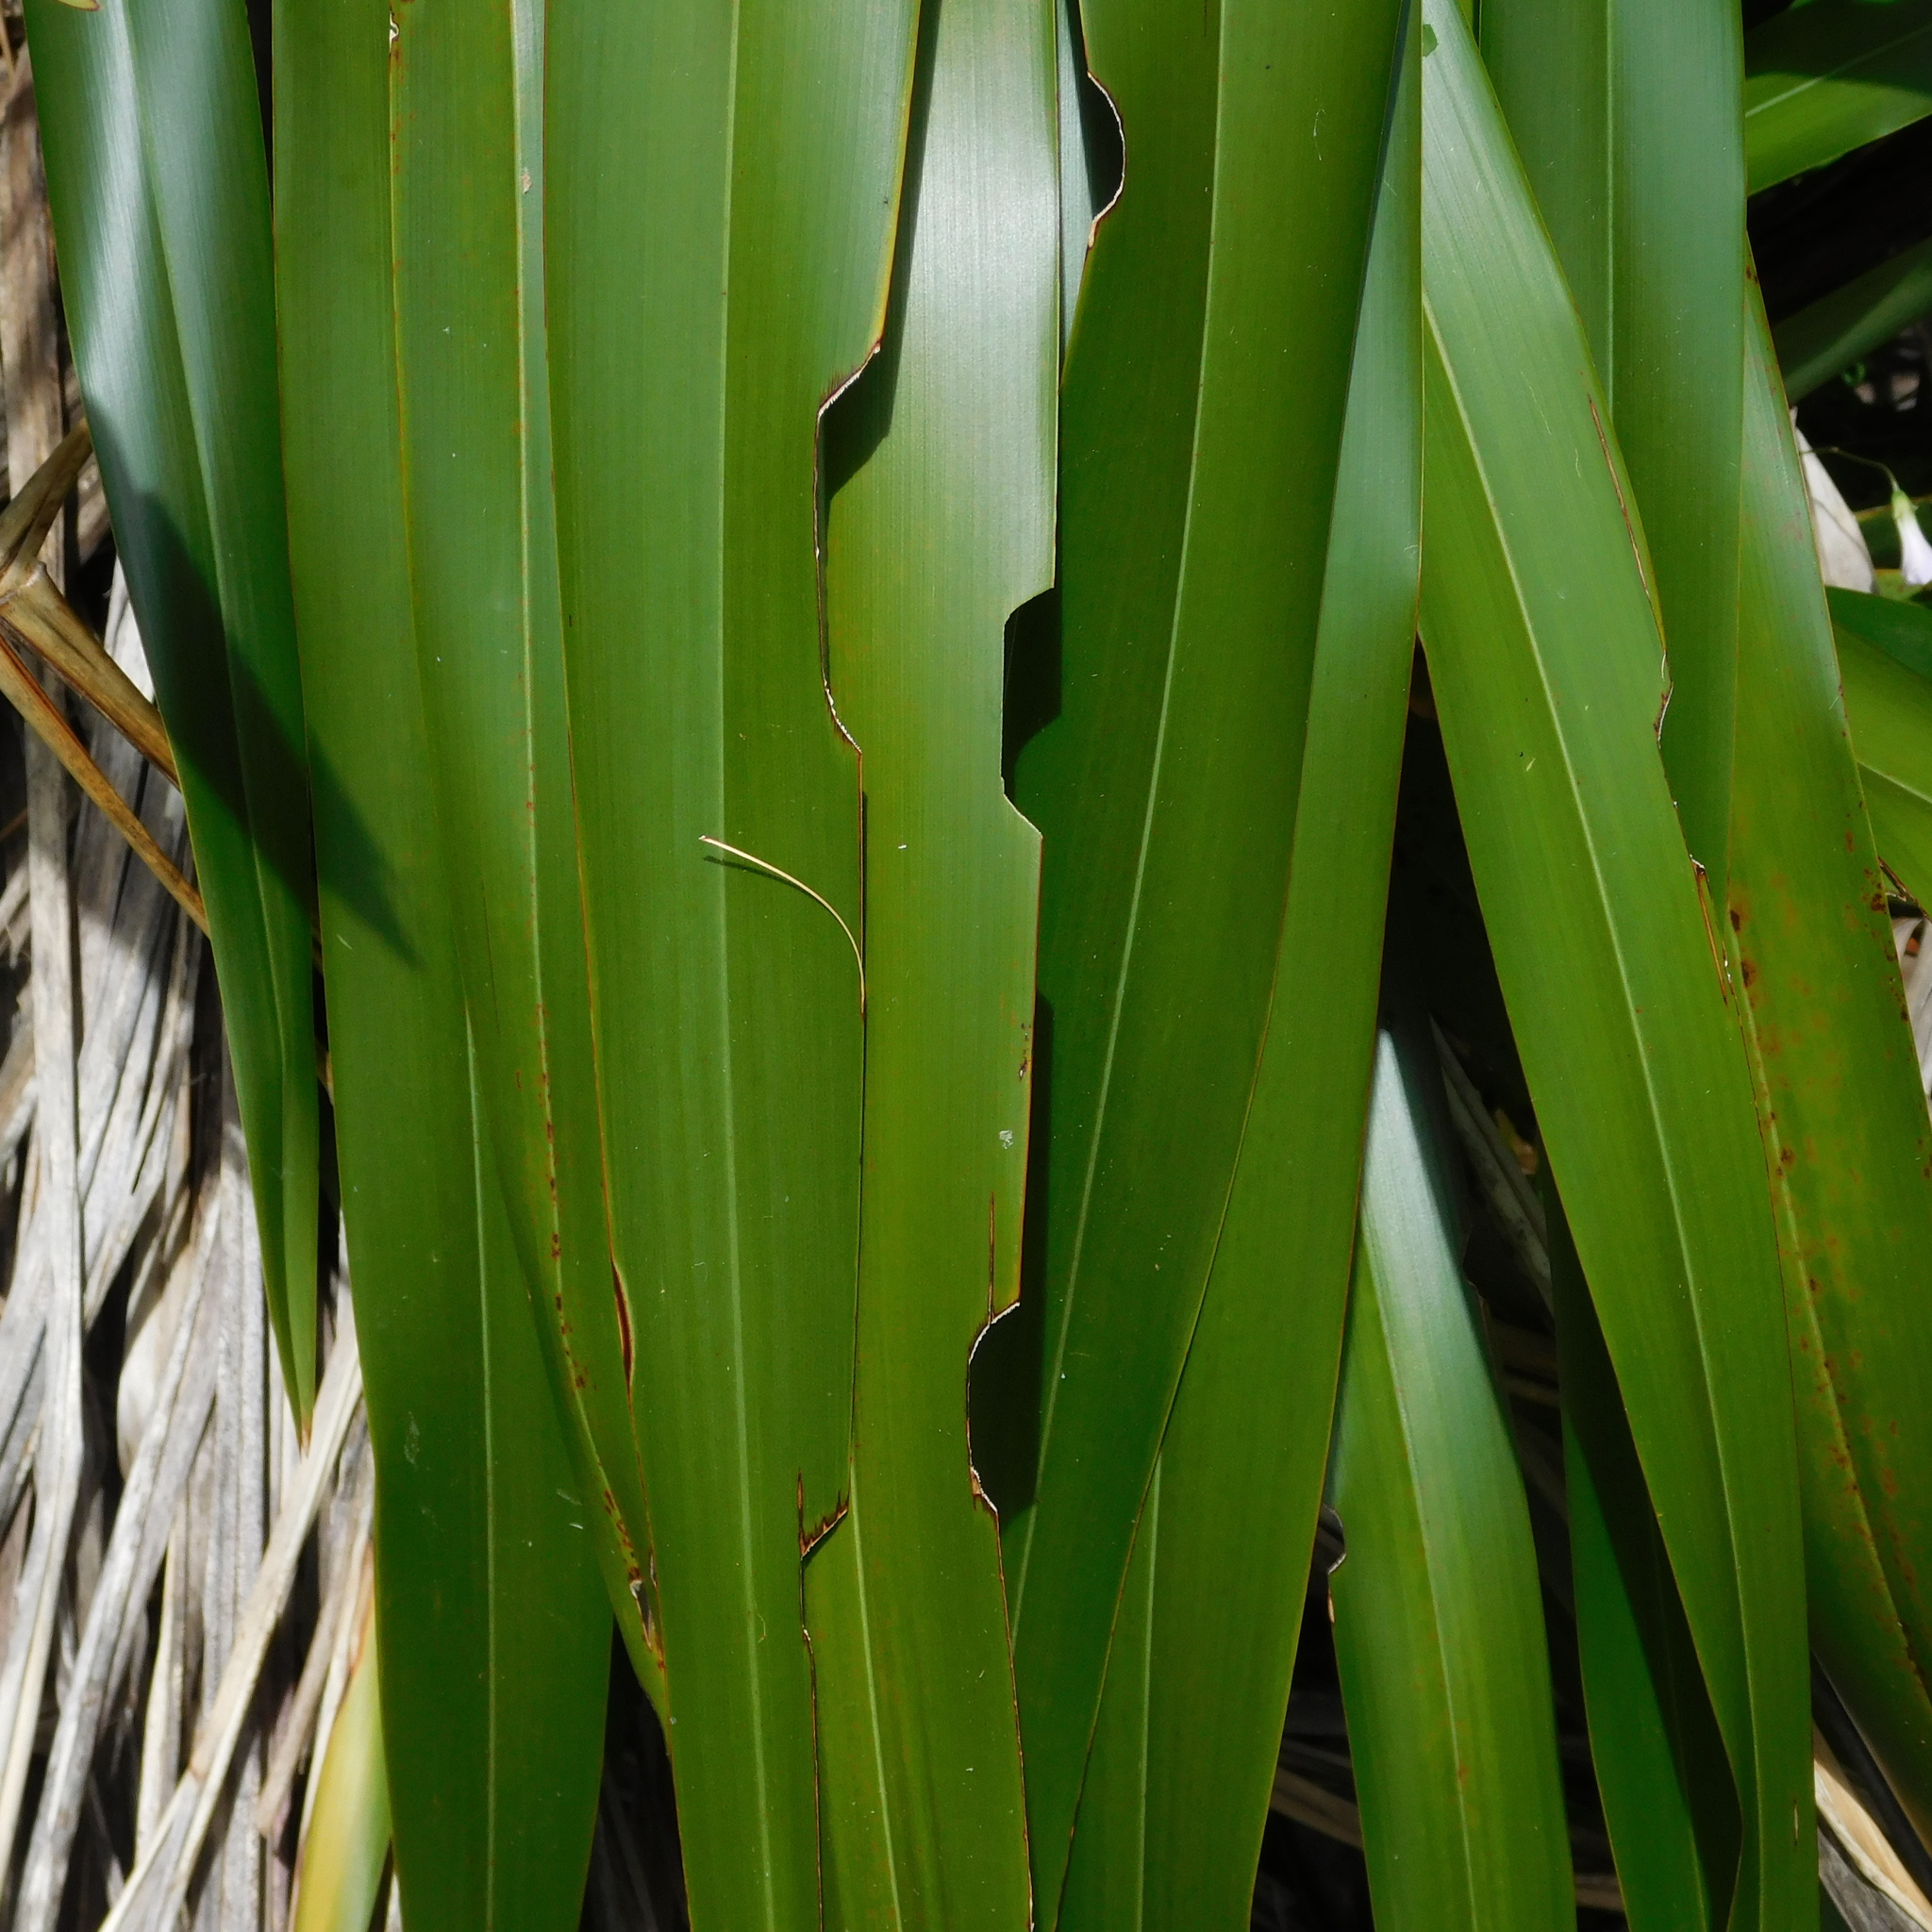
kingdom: Animalia
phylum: Arthropoda
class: Insecta
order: Lepidoptera
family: Noctuidae
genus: Ichneutica
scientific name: Ichneutica
